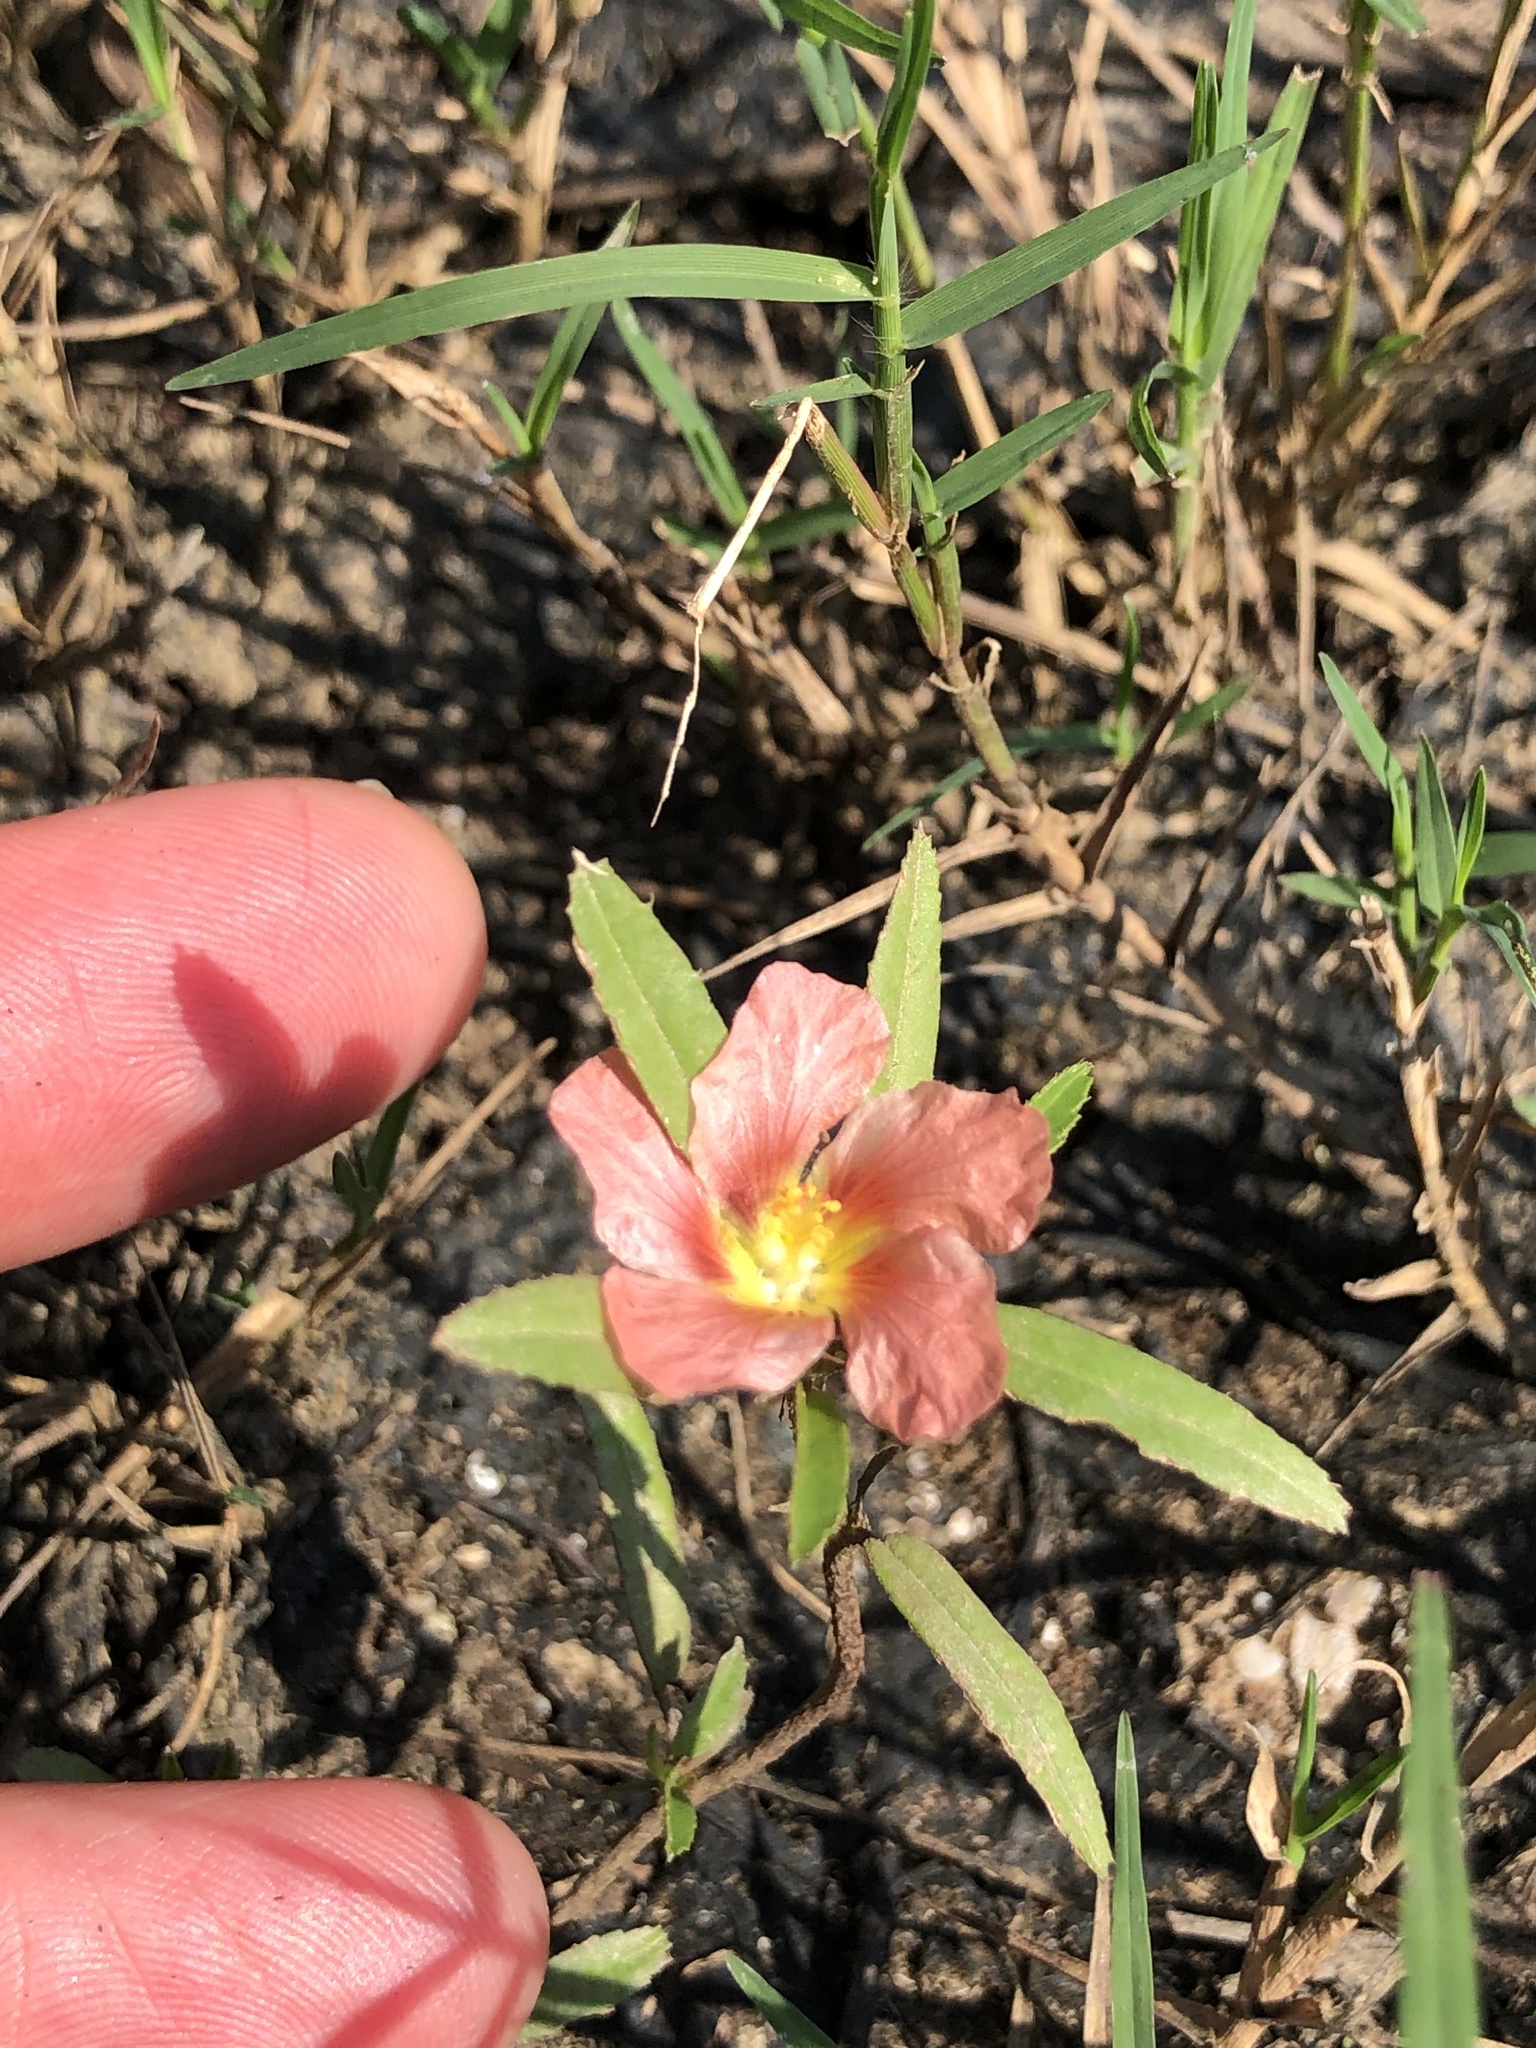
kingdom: Plantae
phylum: Tracheophyta
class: Magnoliopsida
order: Malvales
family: Malvaceae
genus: Sida
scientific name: Sida ciliaris
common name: Bracted fanpetals
